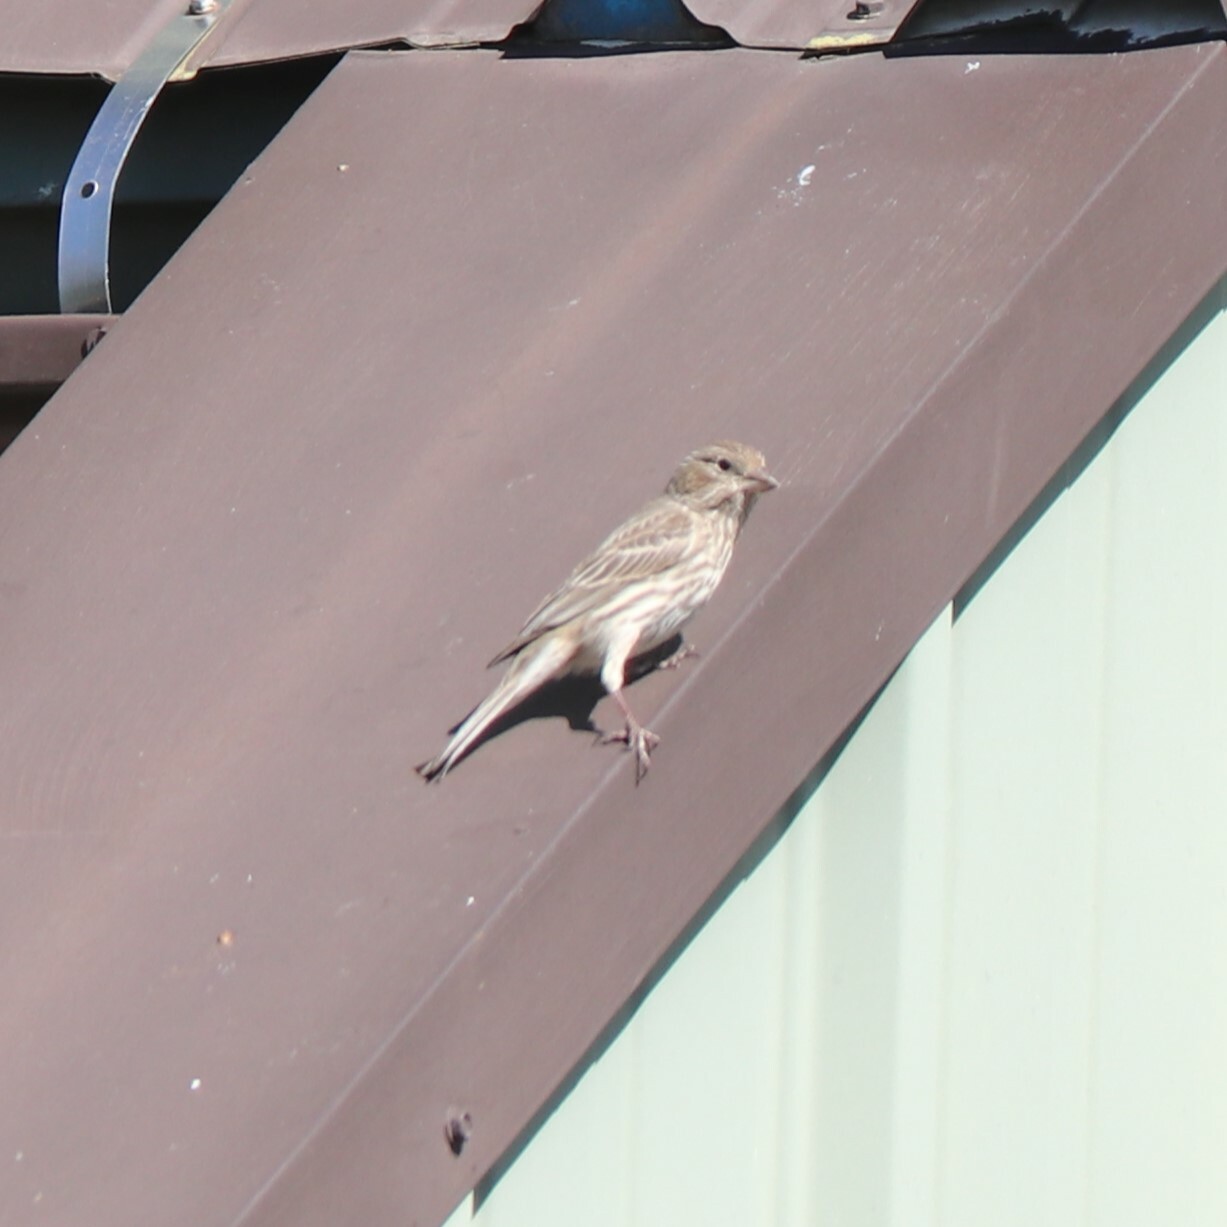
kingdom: Animalia
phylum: Chordata
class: Aves
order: Passeriformes
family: Fringillidae
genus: Haemorhous
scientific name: Haemorhous mexicanus
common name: House finch
